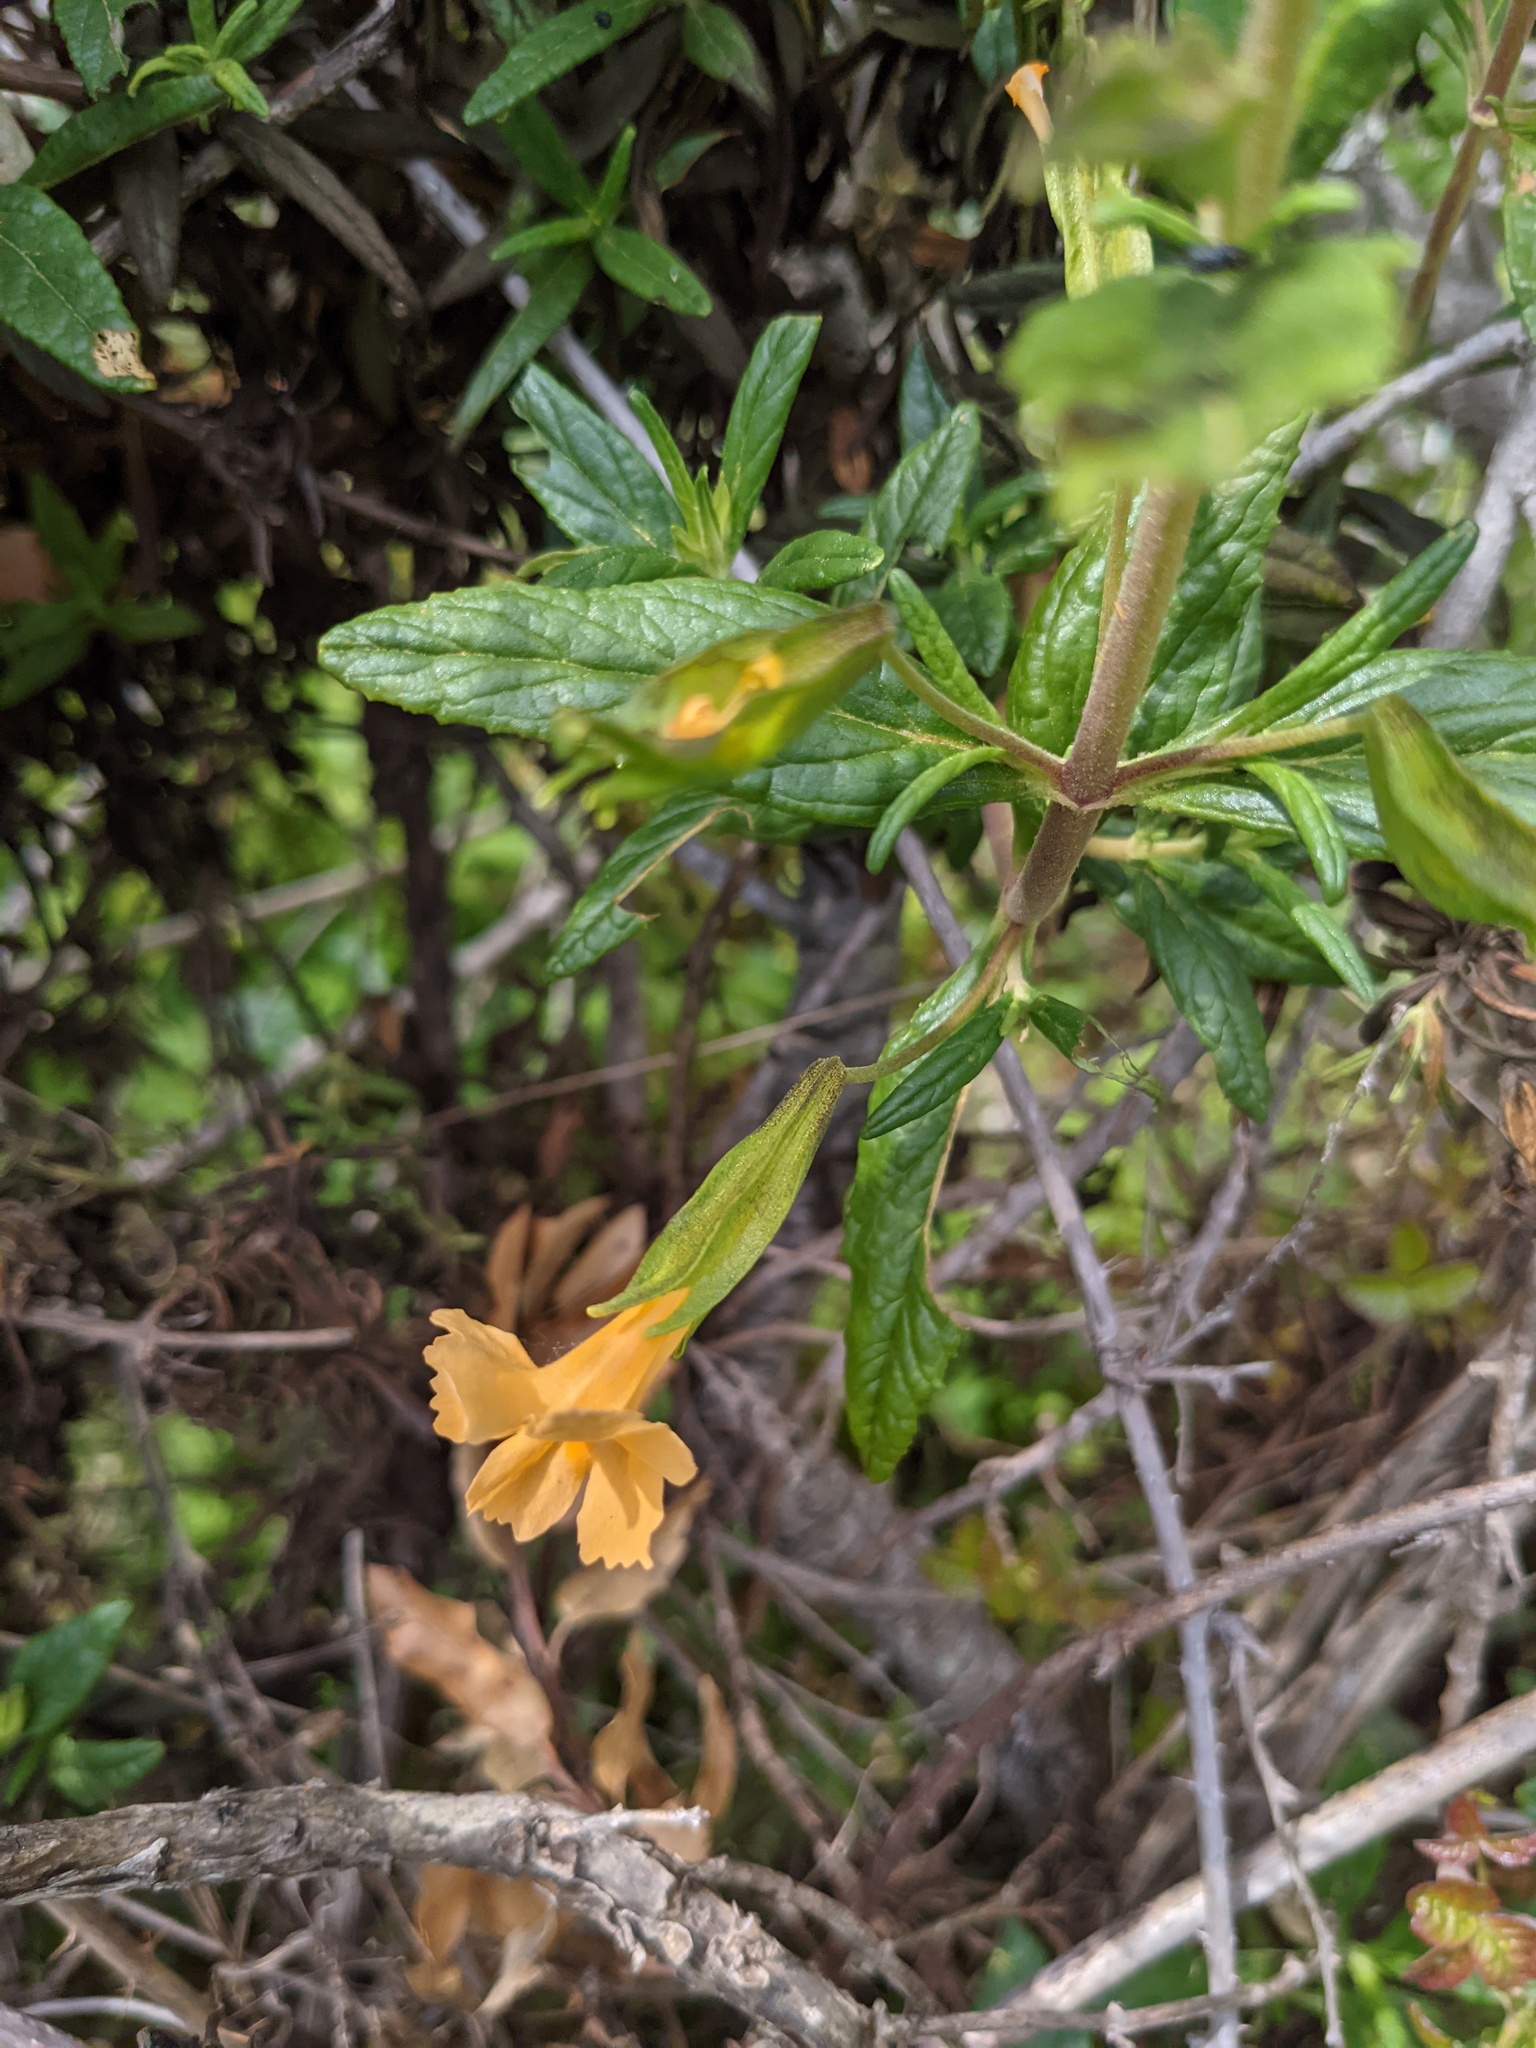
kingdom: Plantae
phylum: Tracheophyta
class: Magnoliopsida
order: Lamiales
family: Phrymaceae
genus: Diplacus
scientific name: Diplacus aurantiacus
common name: Bush monkey-flower
